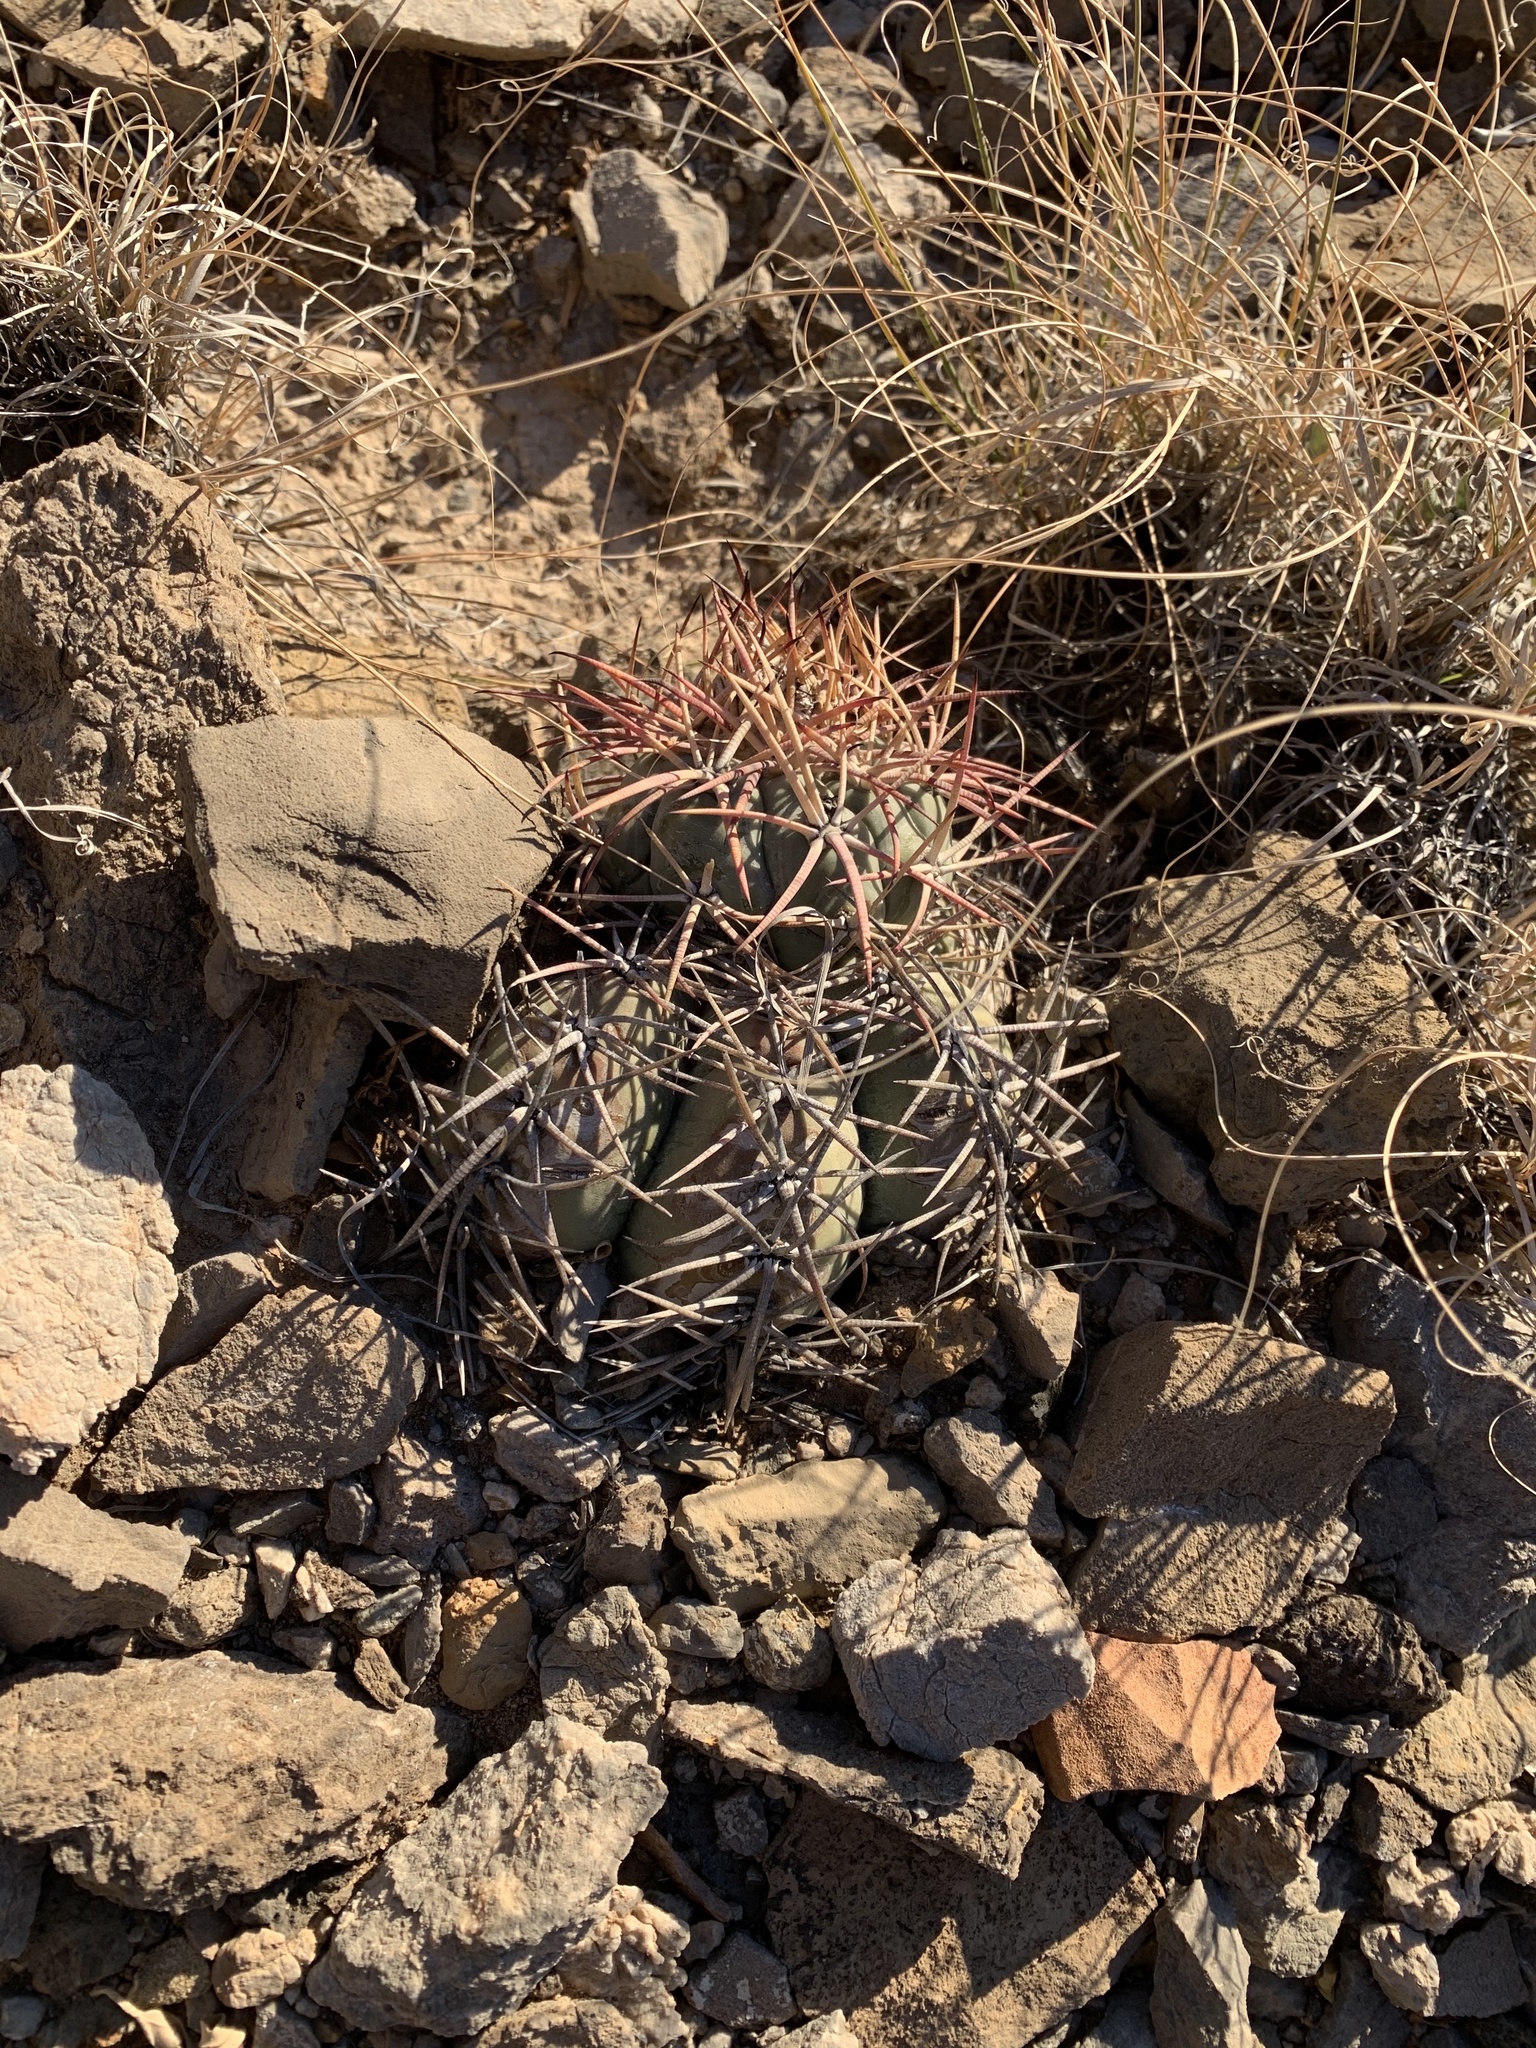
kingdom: Plantae
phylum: Tracheophyta
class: Magnoliopsida
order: Caryophyllales
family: Cactaceae
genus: Echinocactus
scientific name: Echinocactus horizonthalonius
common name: Devilshead
